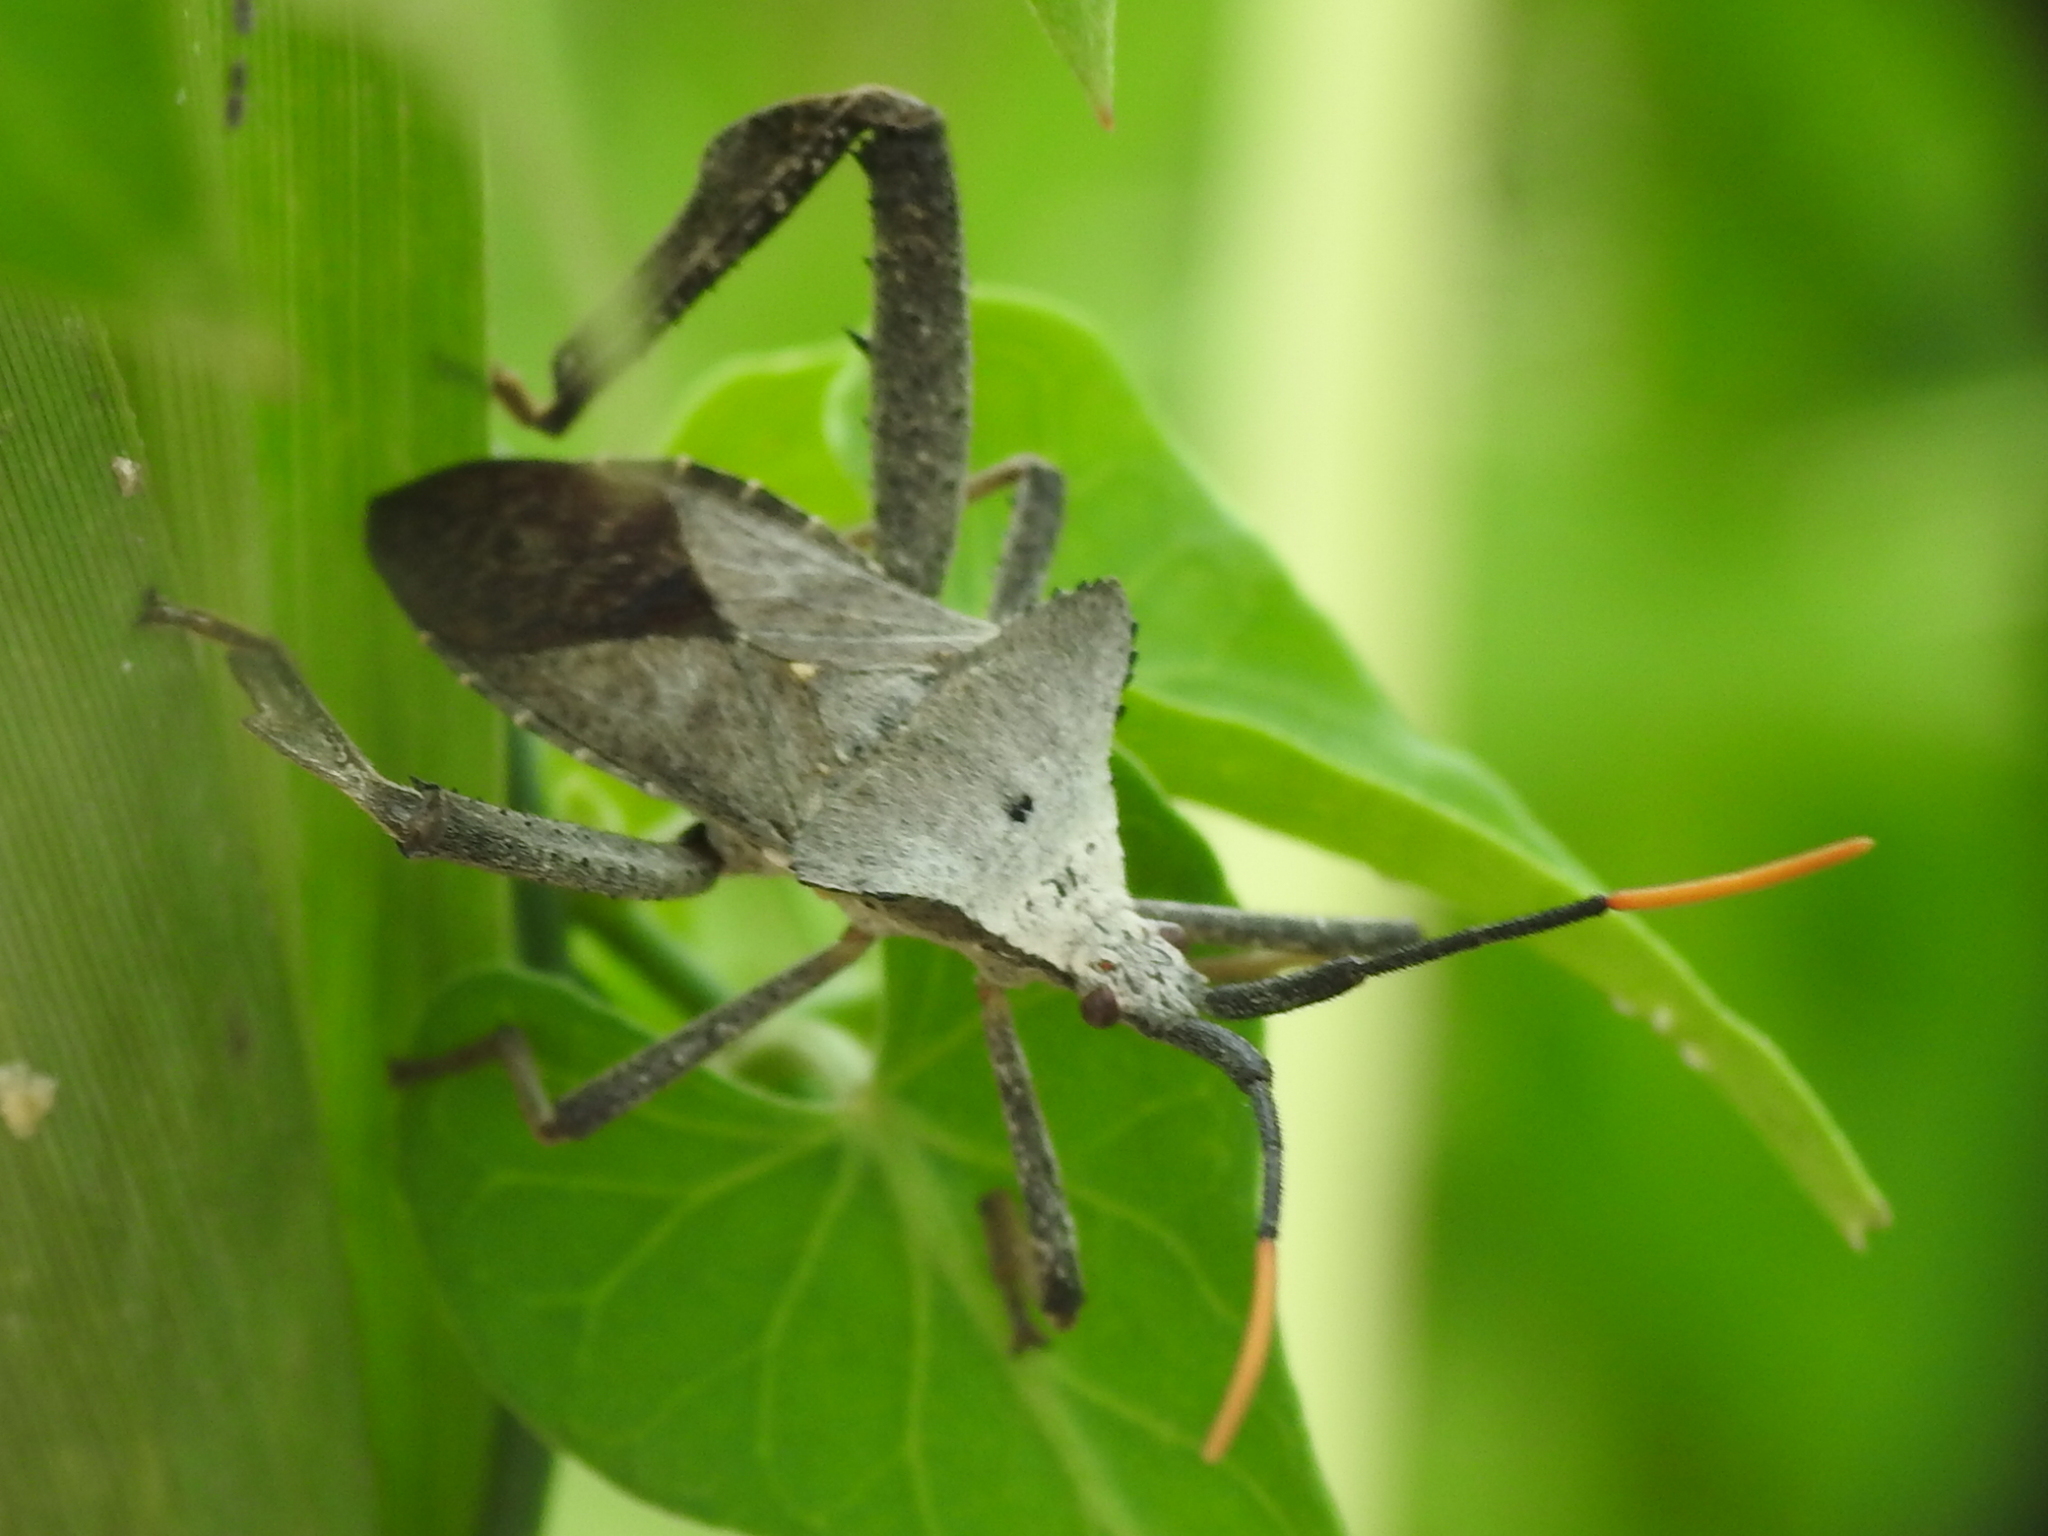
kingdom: Animalia
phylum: Arthropoda
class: Insecta
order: Hemiptera
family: Coreidae
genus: Acanthocephala
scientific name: Acanthocephala alata
